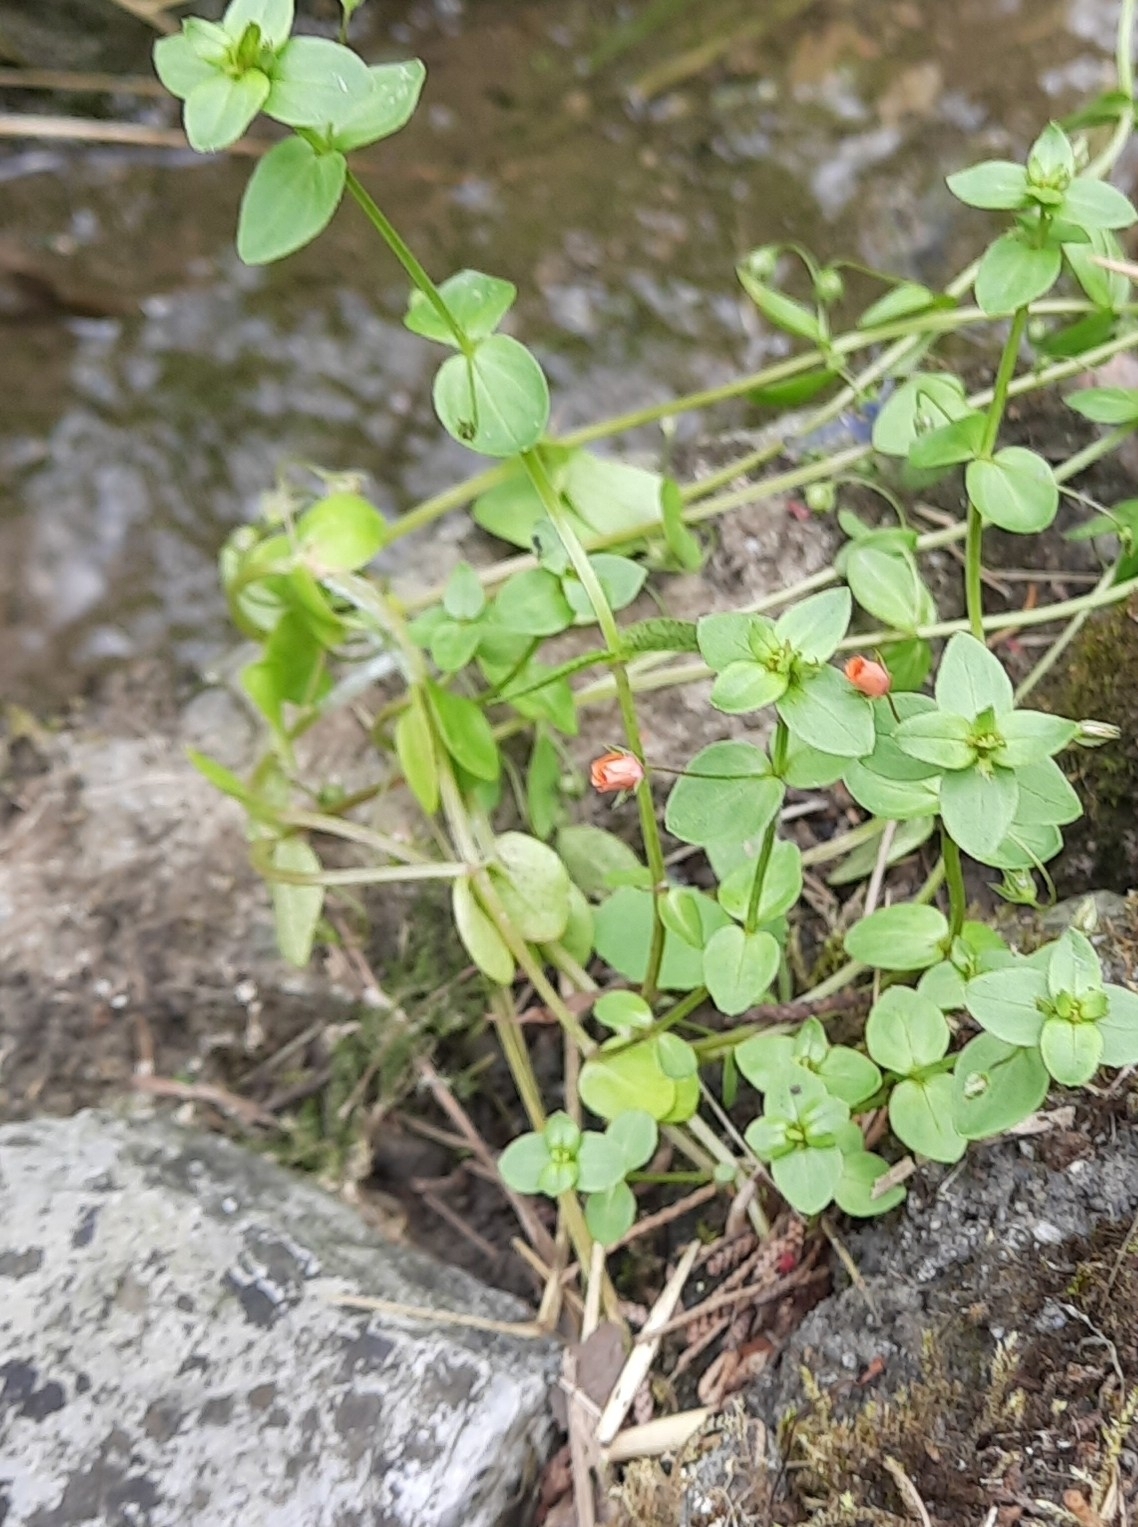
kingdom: Plantae
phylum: Tracheophyta
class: Magnoliopsida
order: Ericales
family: Primulaceae
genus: Lysimachia
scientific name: Lysimachia arvensis
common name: Scarlet pimpernel
